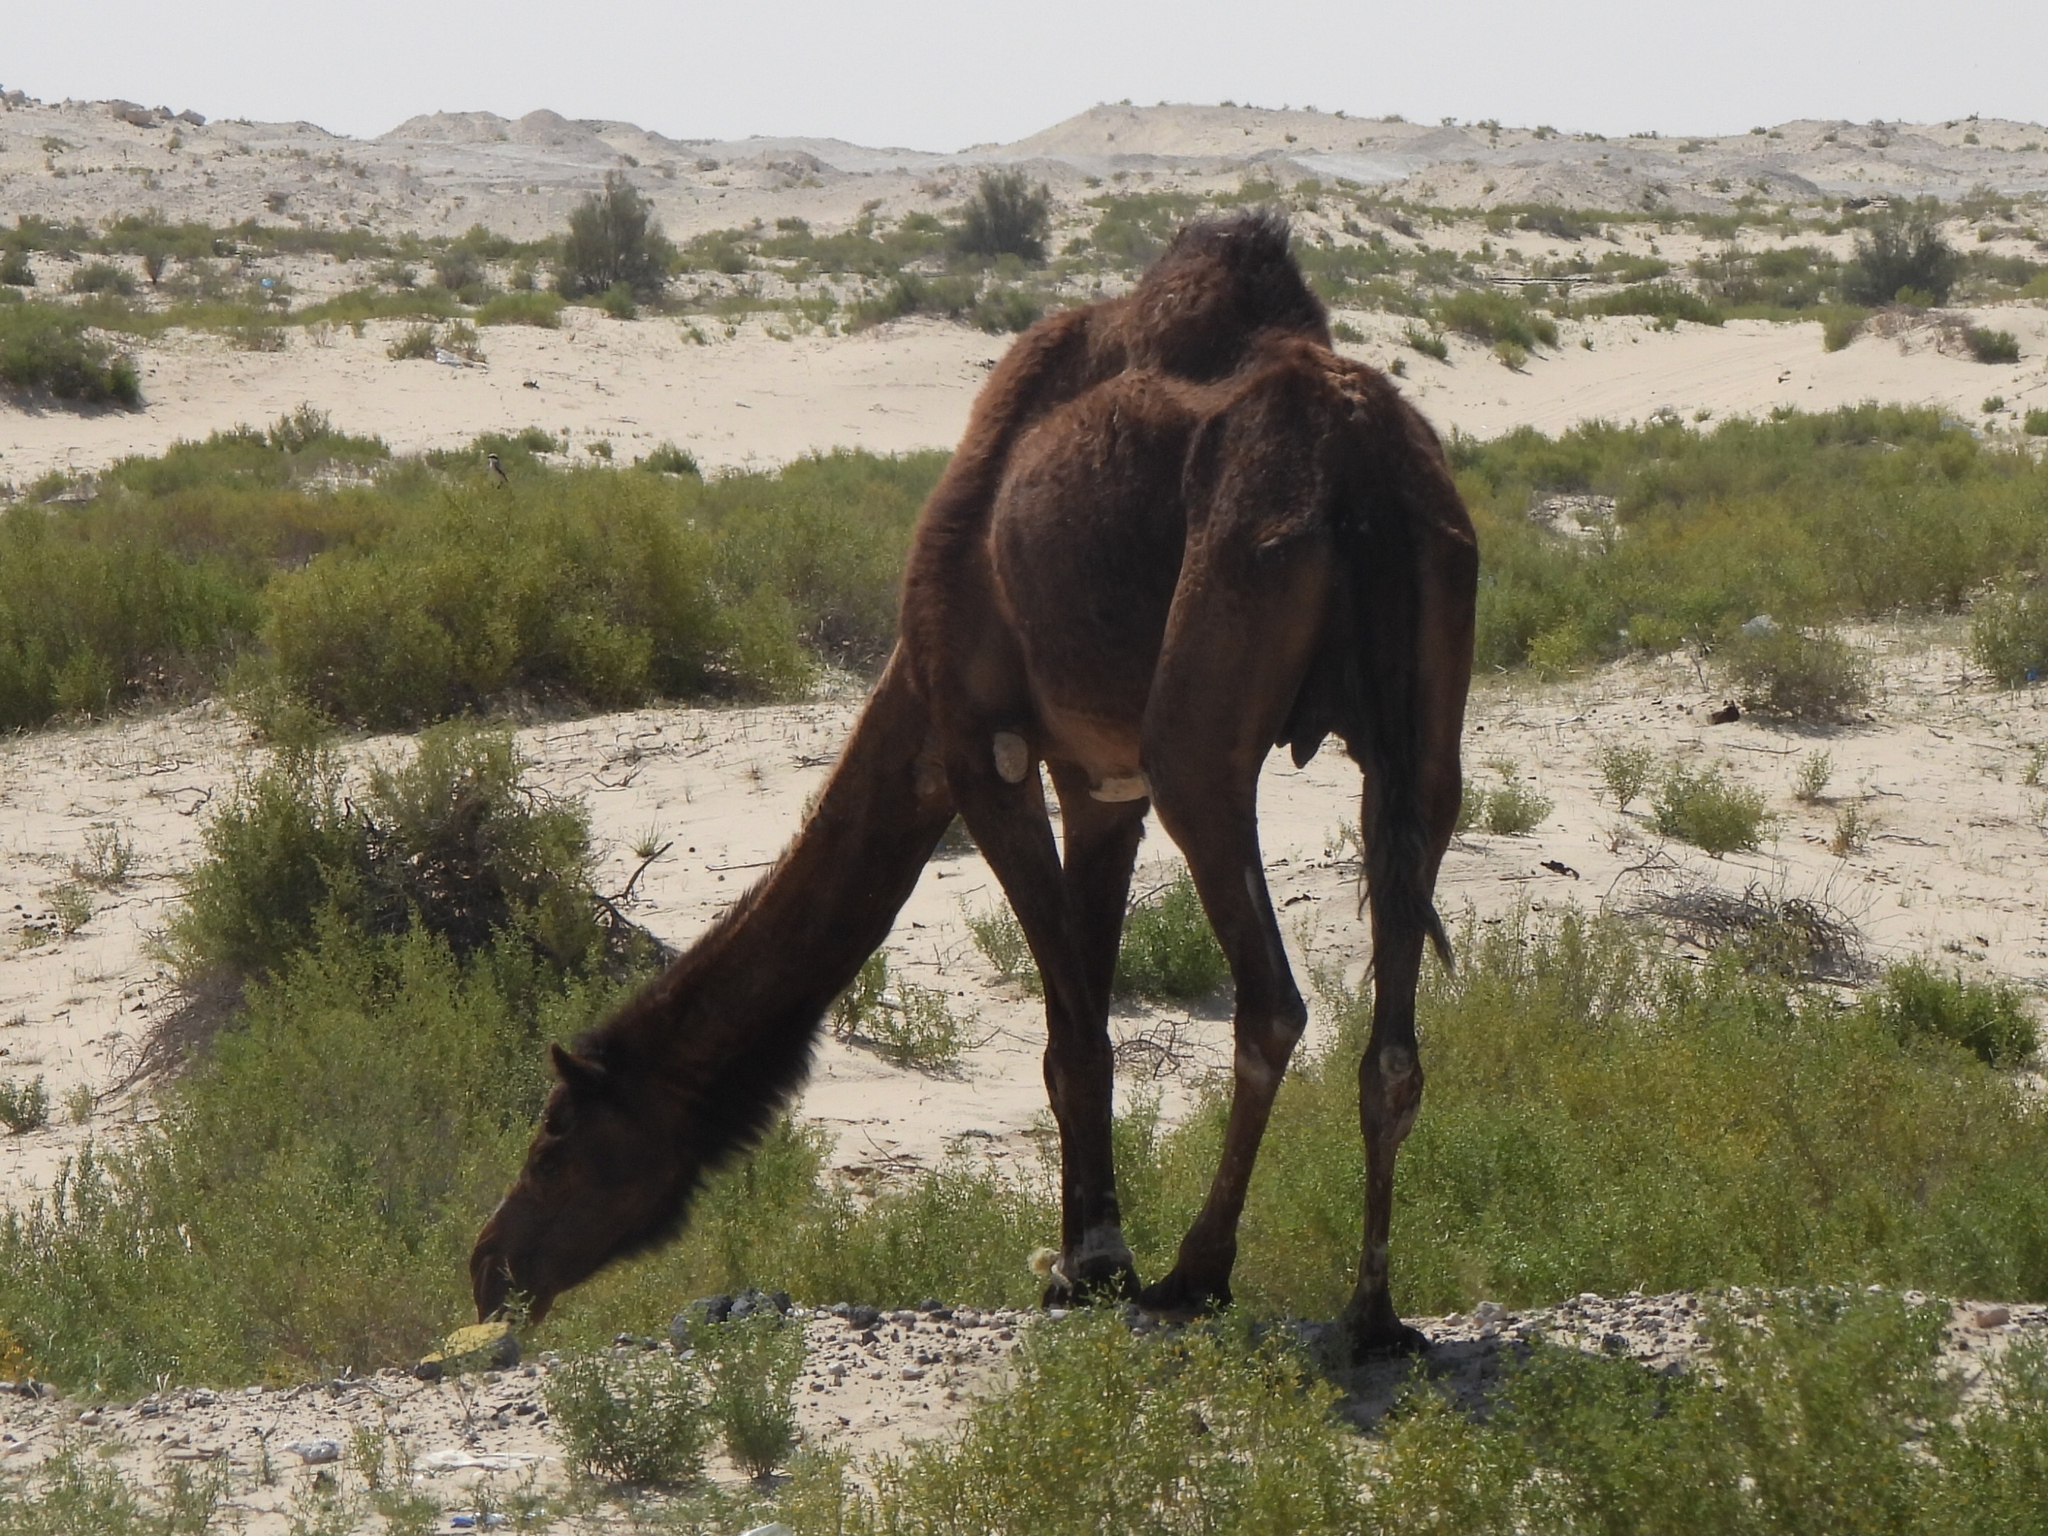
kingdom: Animalia
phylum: Chordata
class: Mammalia
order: Artiodactyla
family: Camelidae
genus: Camelus
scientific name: Camelus dromedarius
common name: One-humped camel
